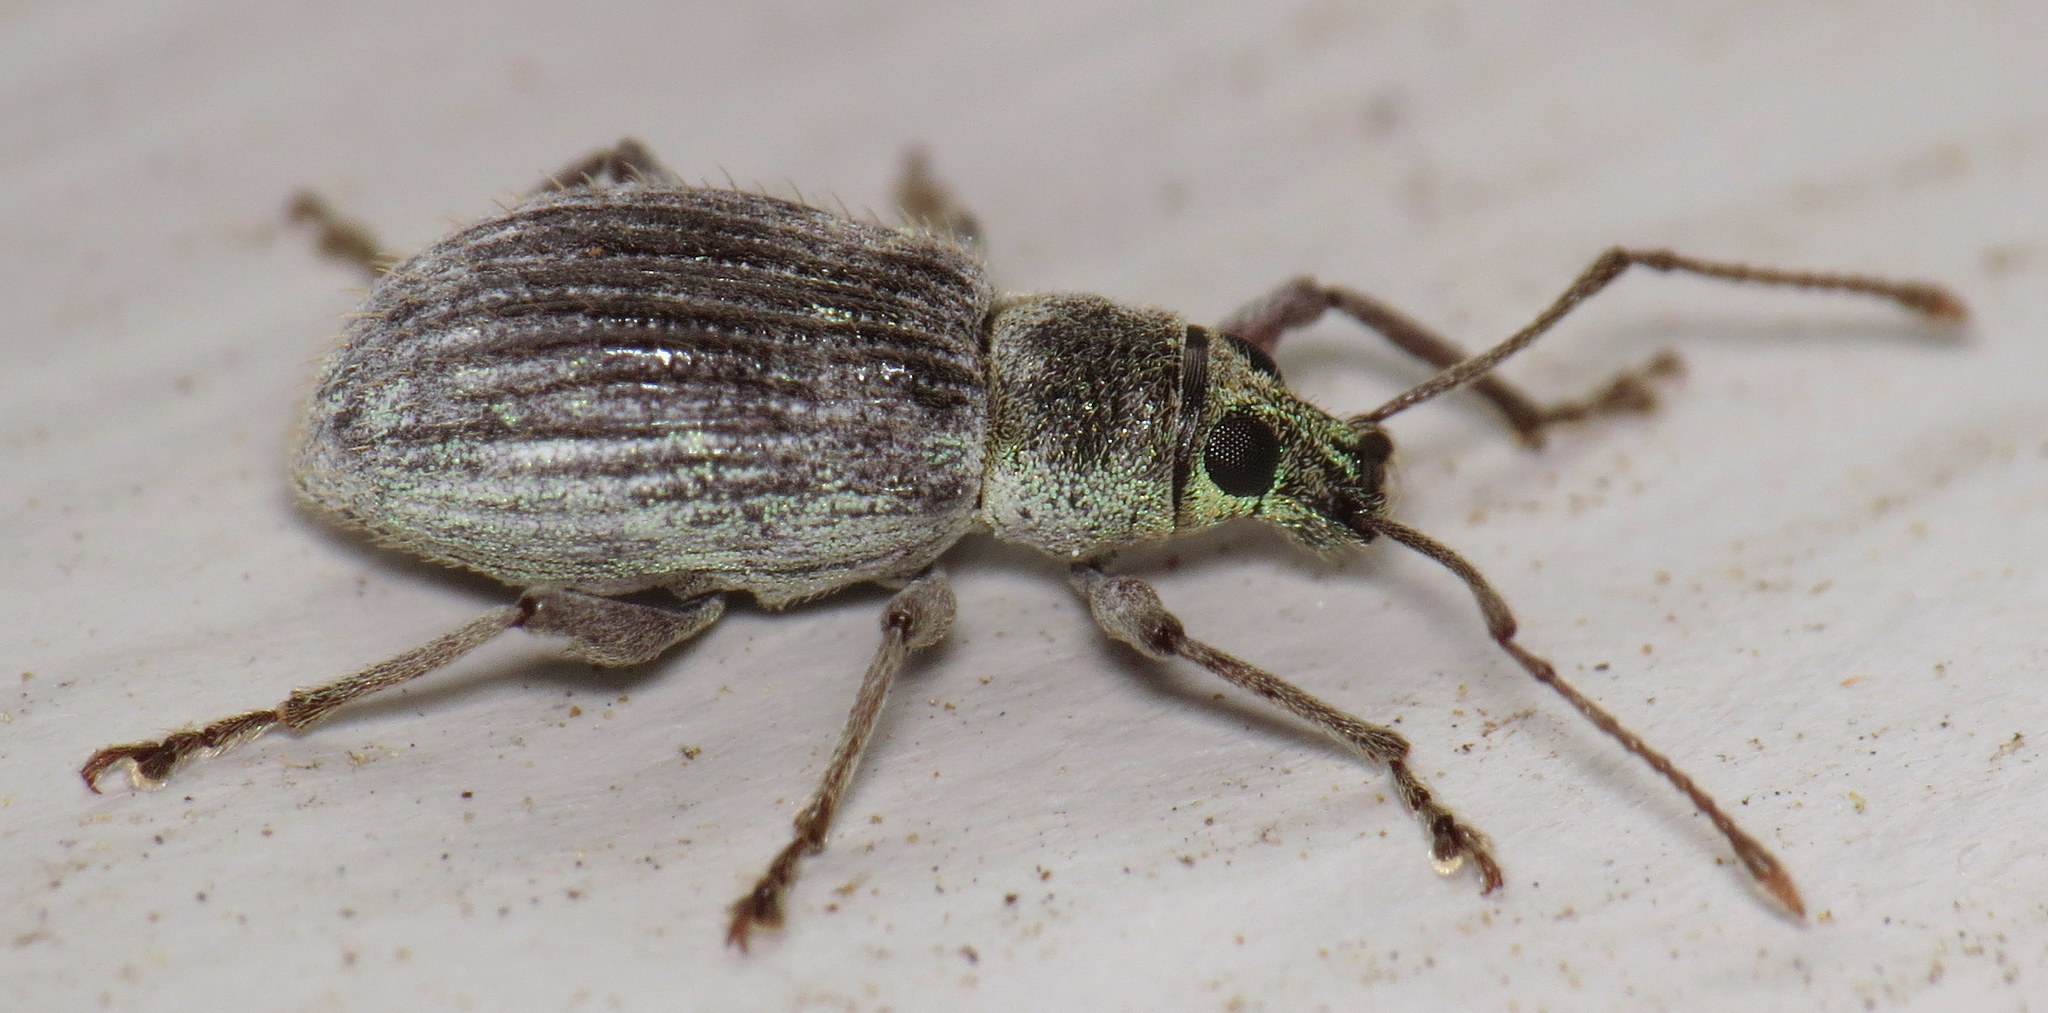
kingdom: Animalia
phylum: Arthropoda
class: Insecta
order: Coleoptera
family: Curculionidae
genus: Cyrtepistomus
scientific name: Cyrtepistomus castaneus
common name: Weevil
